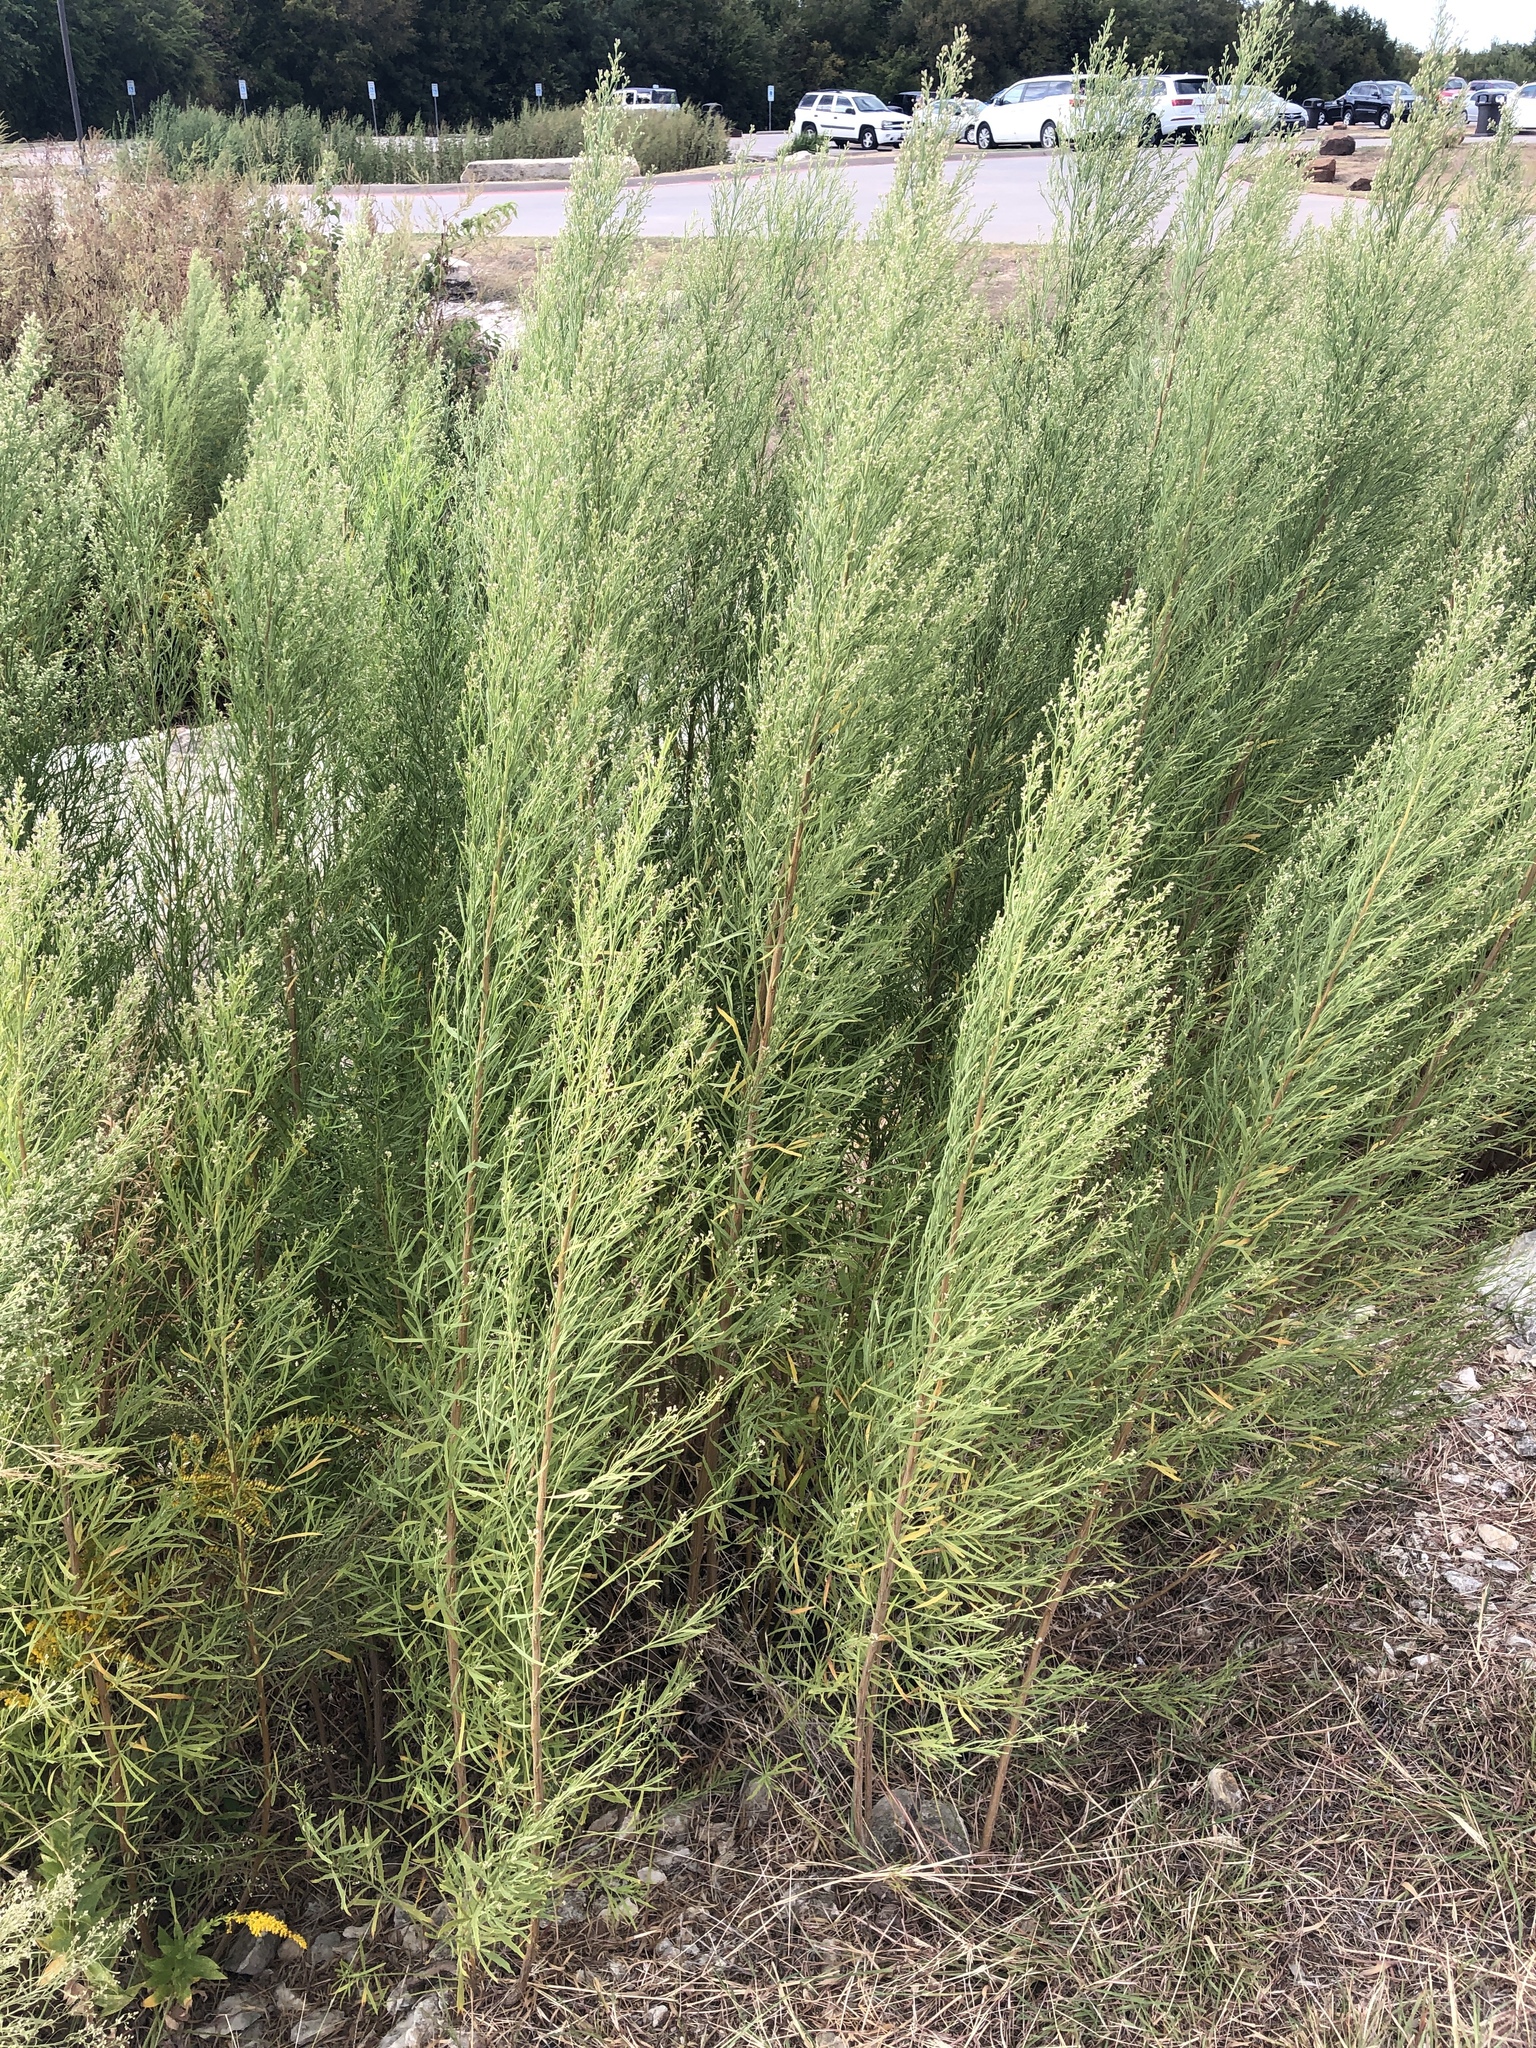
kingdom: Plantae
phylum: Tracheophyta
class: Magnoliopsida
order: Asterales
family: Asteraceae
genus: Baccharis
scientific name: Baccharis neglecta
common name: Roosevelt-weed
